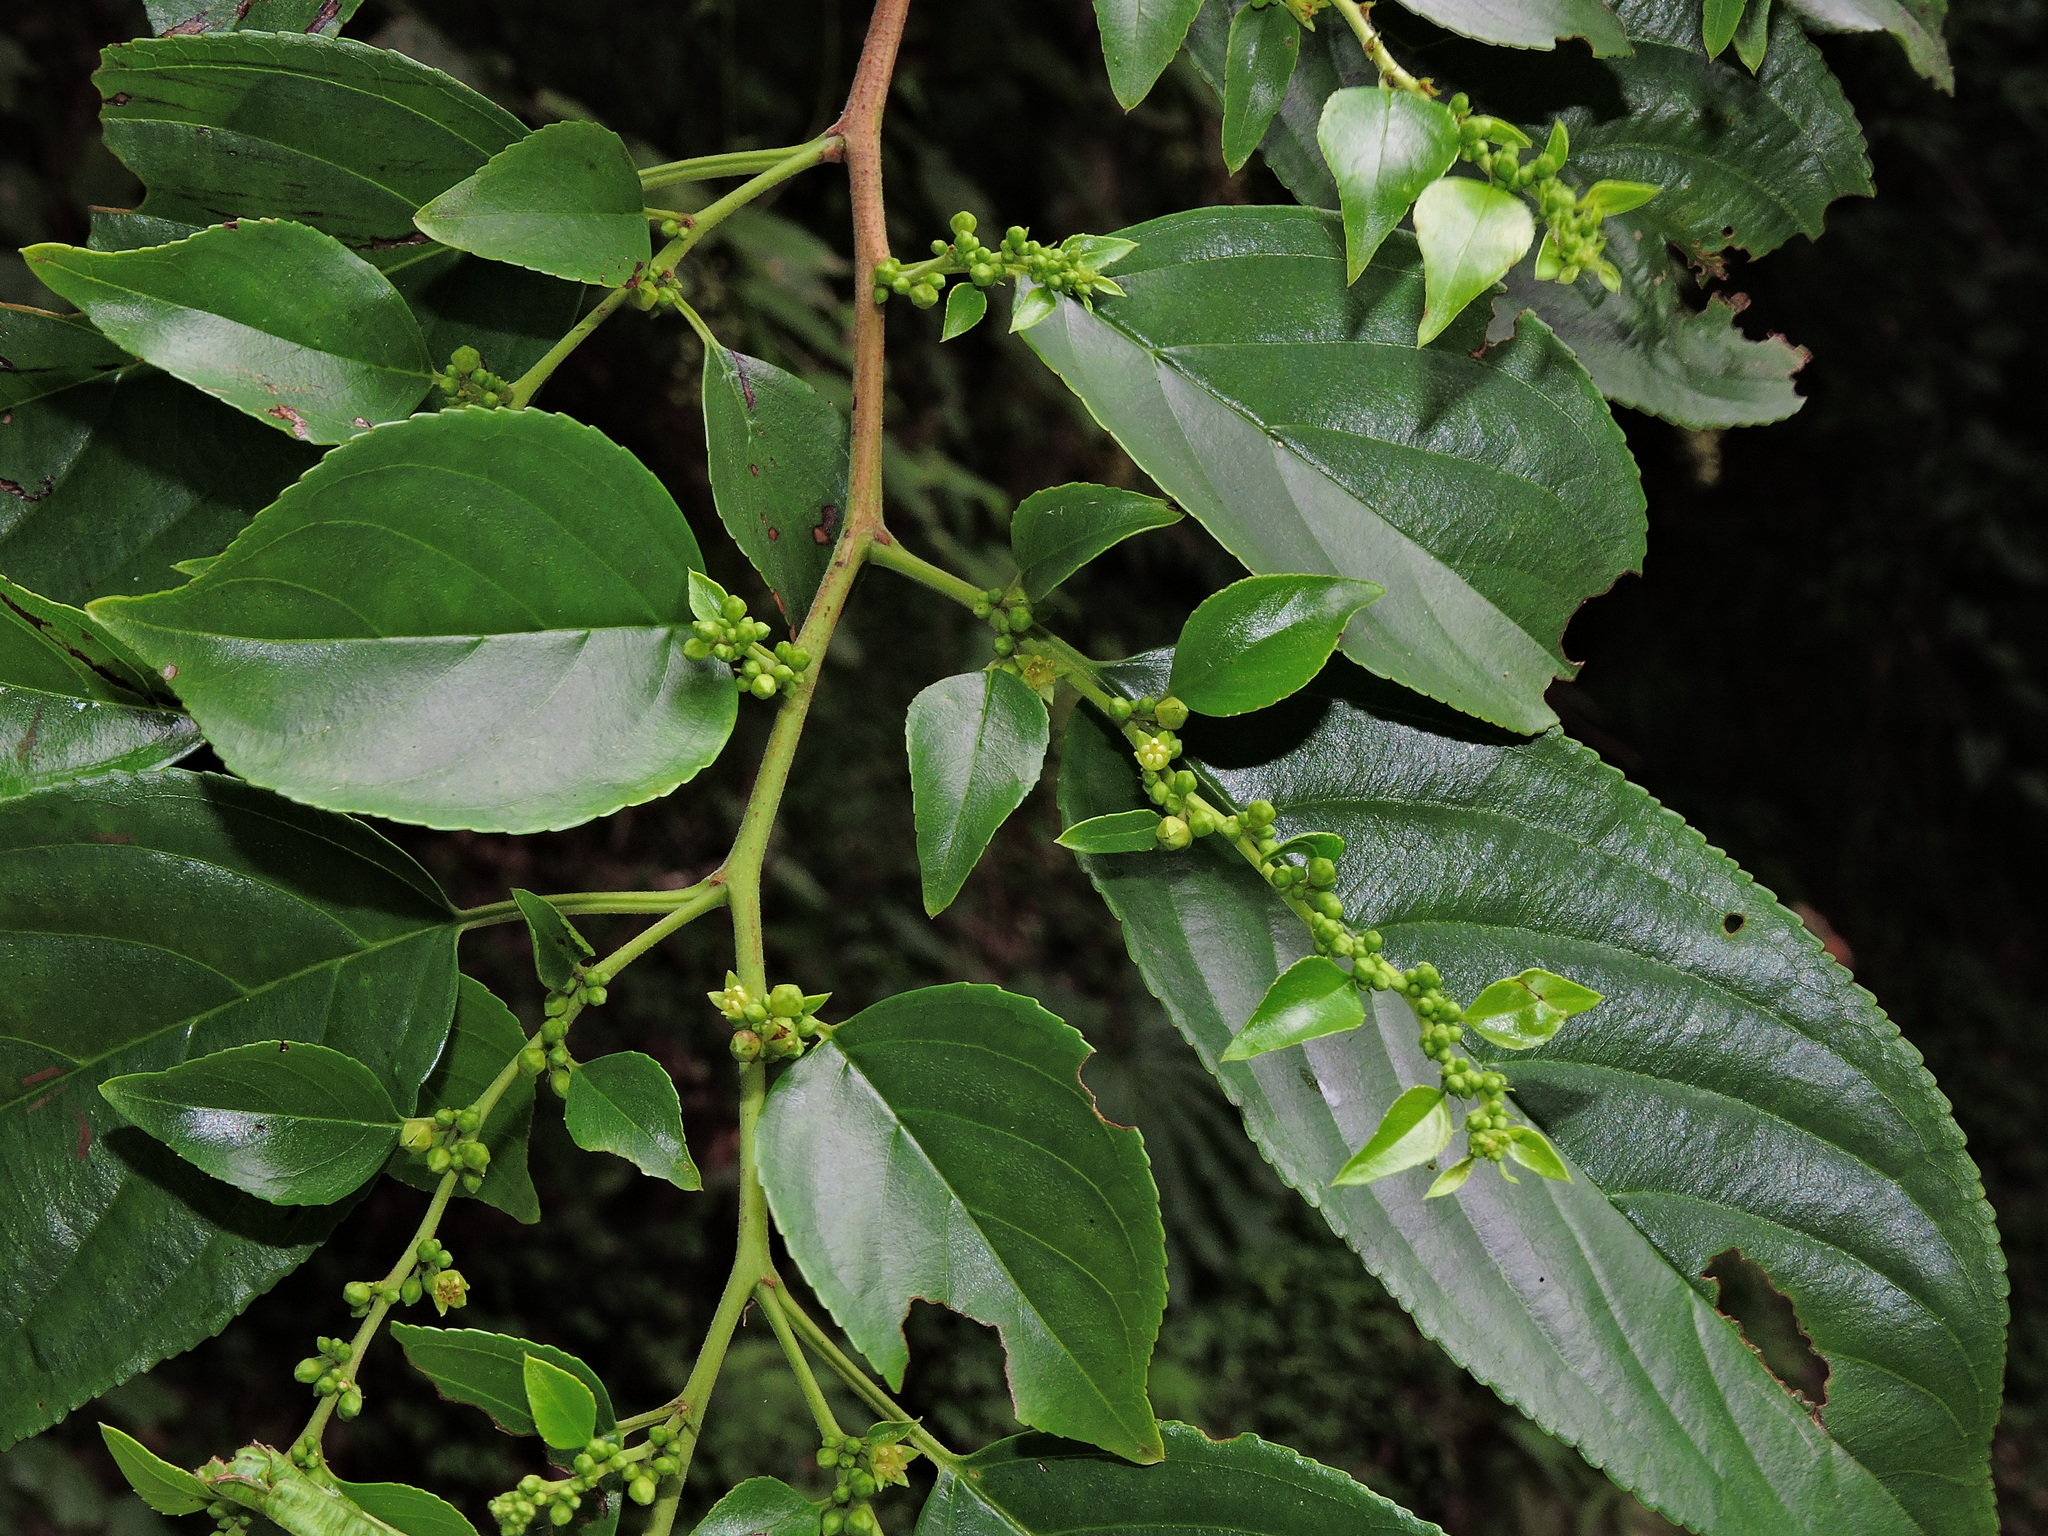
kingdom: Plantae
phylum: Tracheophyta
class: Magnoliopsida
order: Rosales
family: Rhamnaceae
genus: Rhamnus
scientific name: Rhamnus formosana
